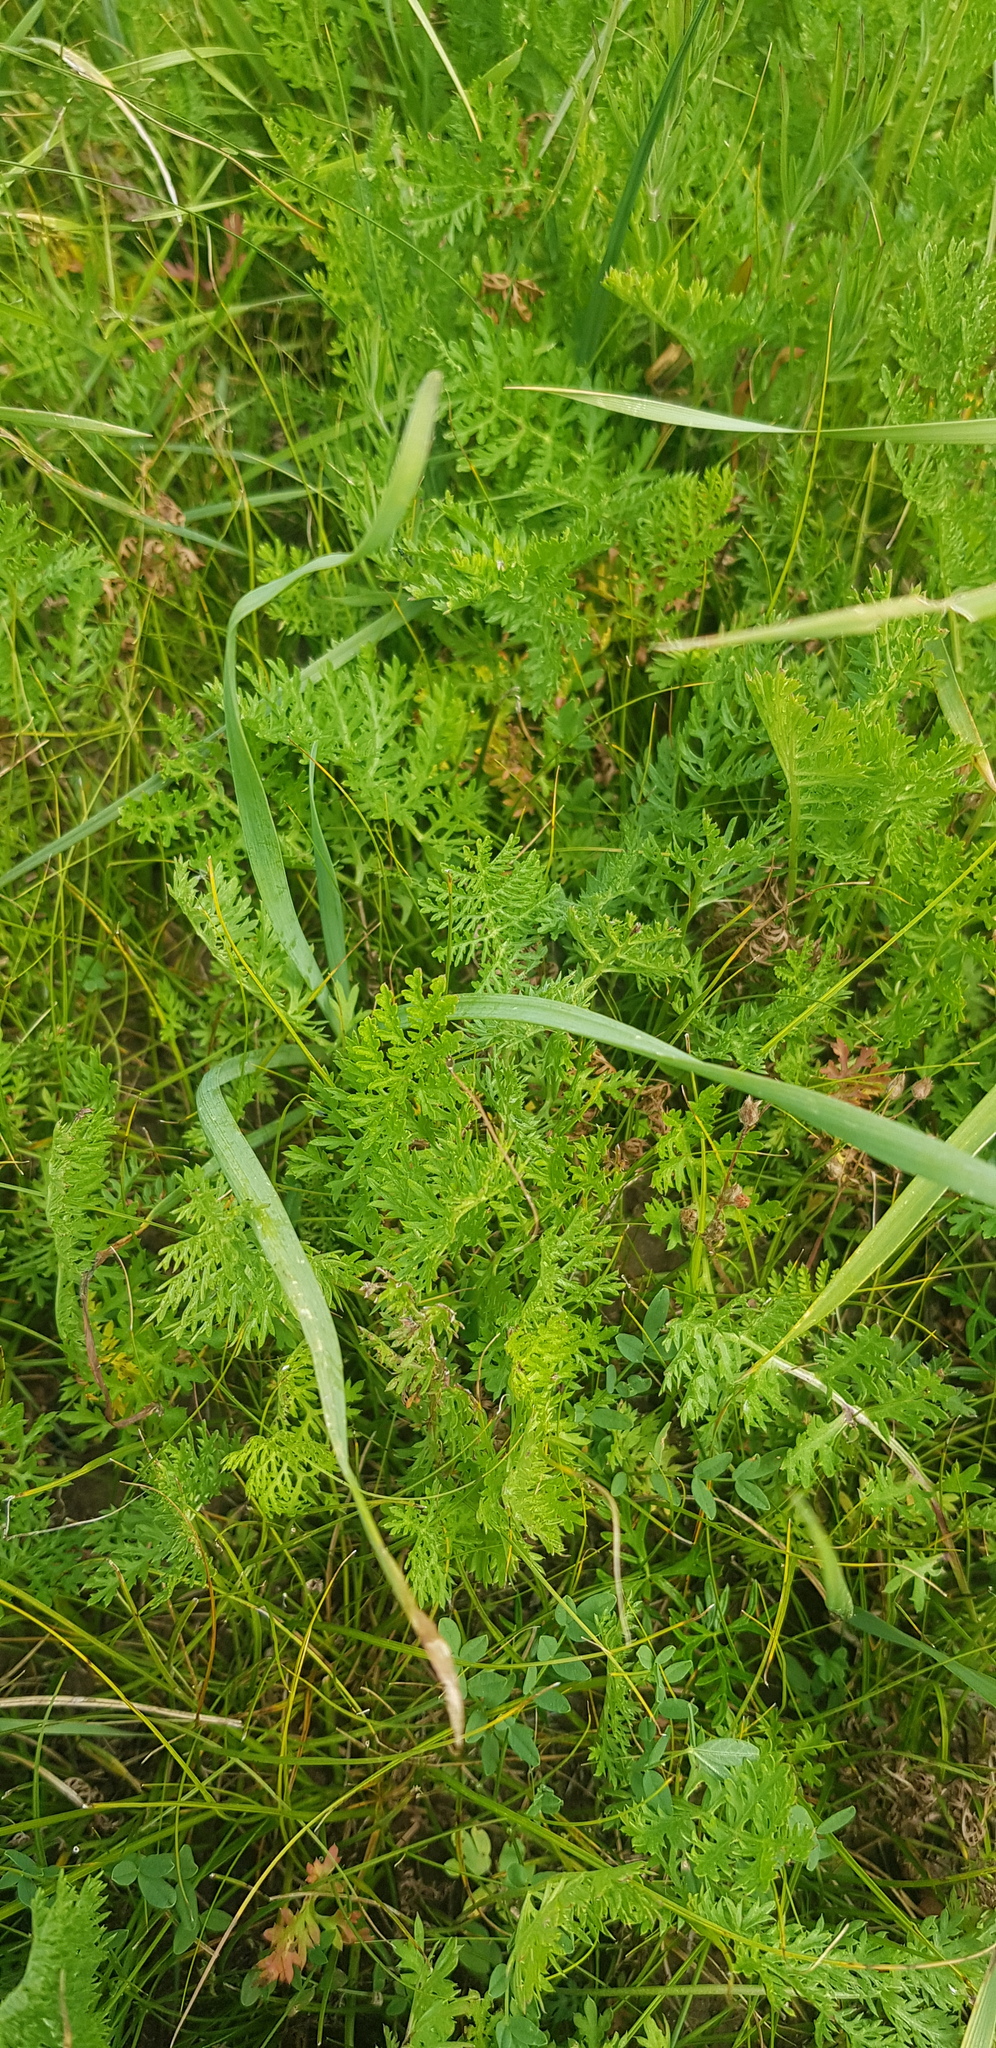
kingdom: Plantae
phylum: Tracheophyta
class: Magnoliopsida
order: Asterales
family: Asteraceae
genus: Artemisia
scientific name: Artemisia tanacetifolia
